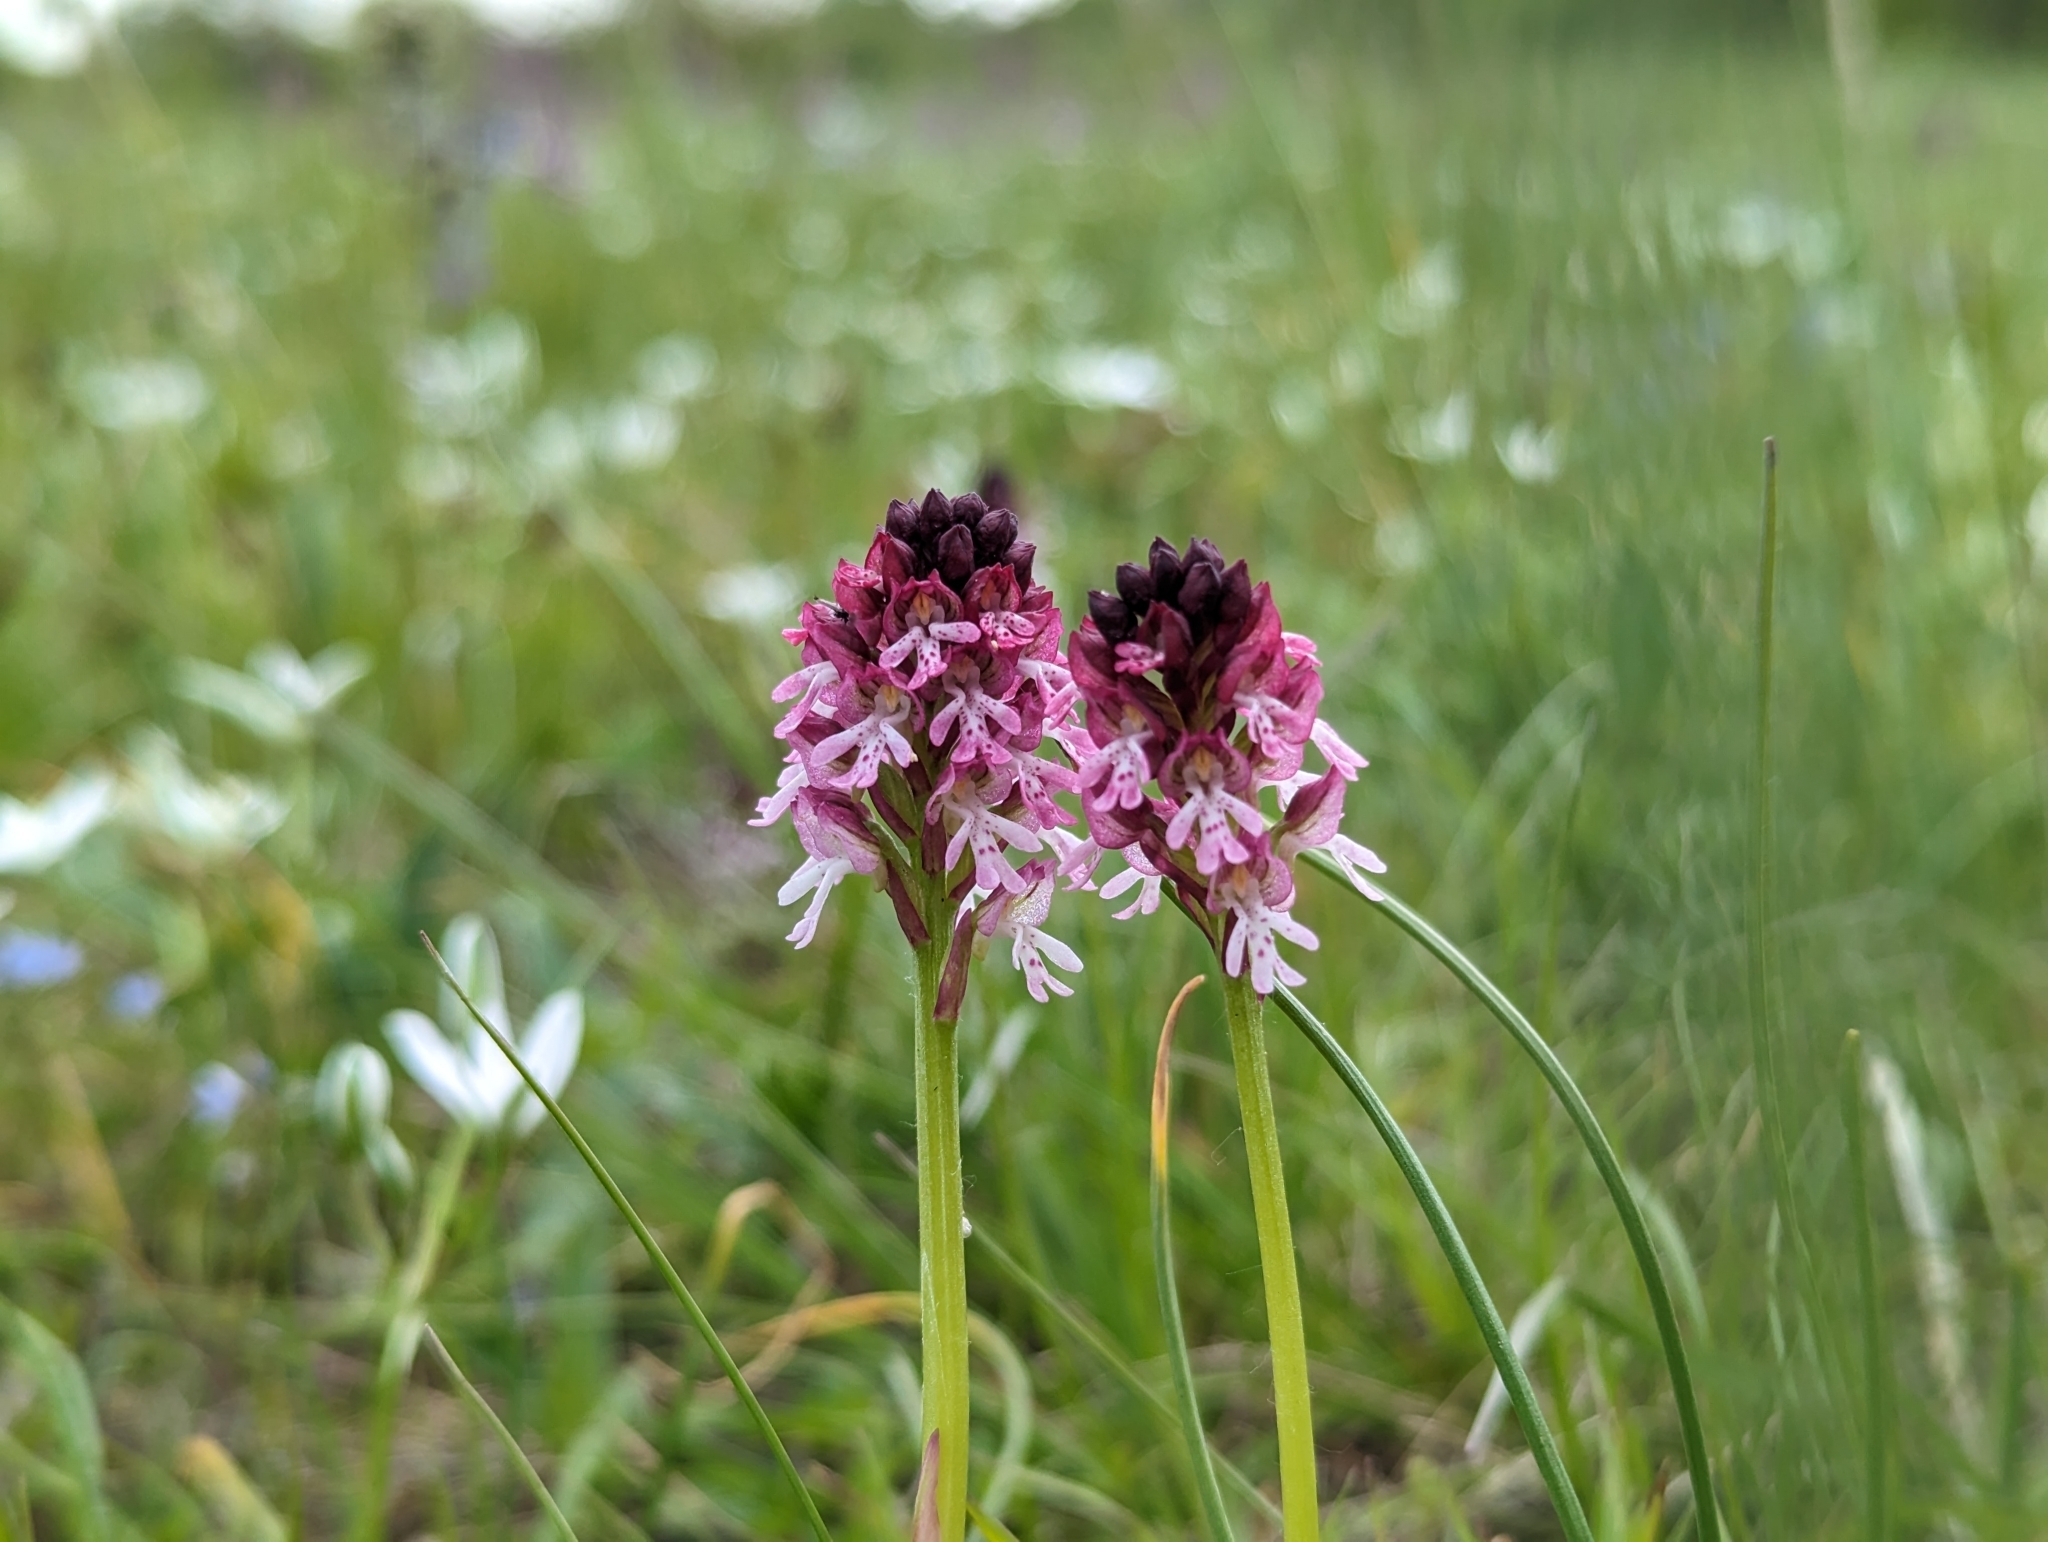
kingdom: Plantae
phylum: Tracheophyta
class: Liliopsida
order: Asparagales
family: Orchidaceae
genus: Neotinea
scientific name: Neotinea ustulata
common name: Burnt orchid
